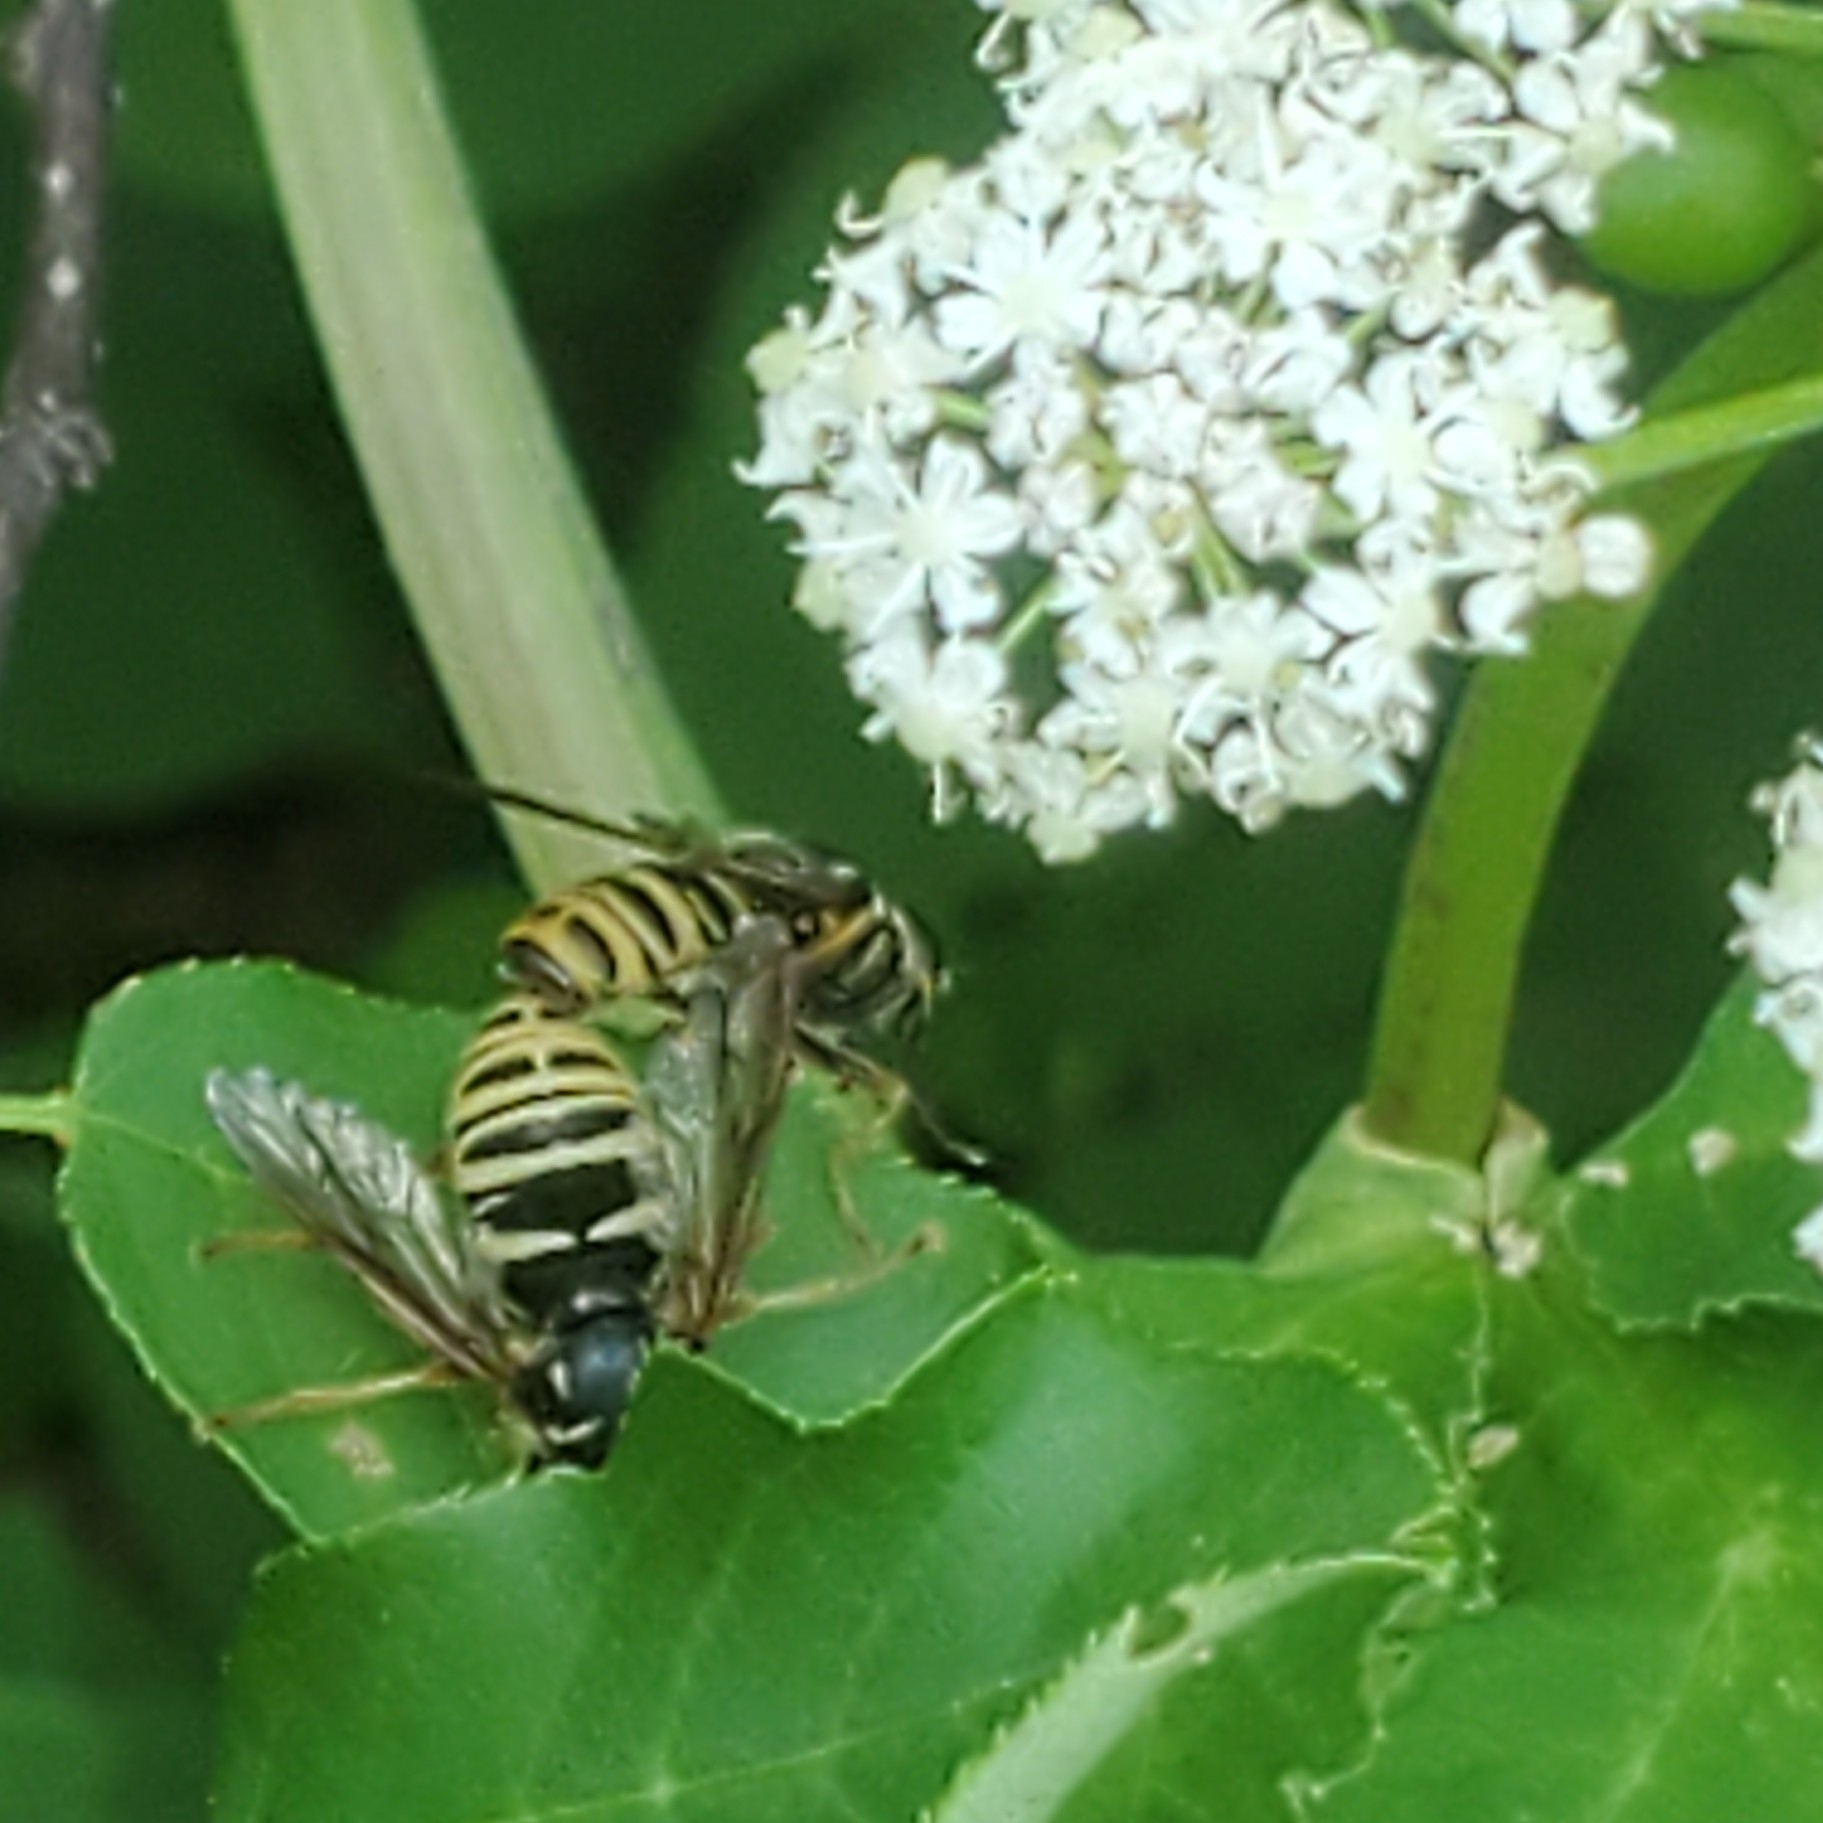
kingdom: Animalia
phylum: Arthropoda
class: Insecta
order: Diptera
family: Syrphidae
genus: Temnostoma
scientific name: Temnostoma excentricum
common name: Black-spotted falsehorn
